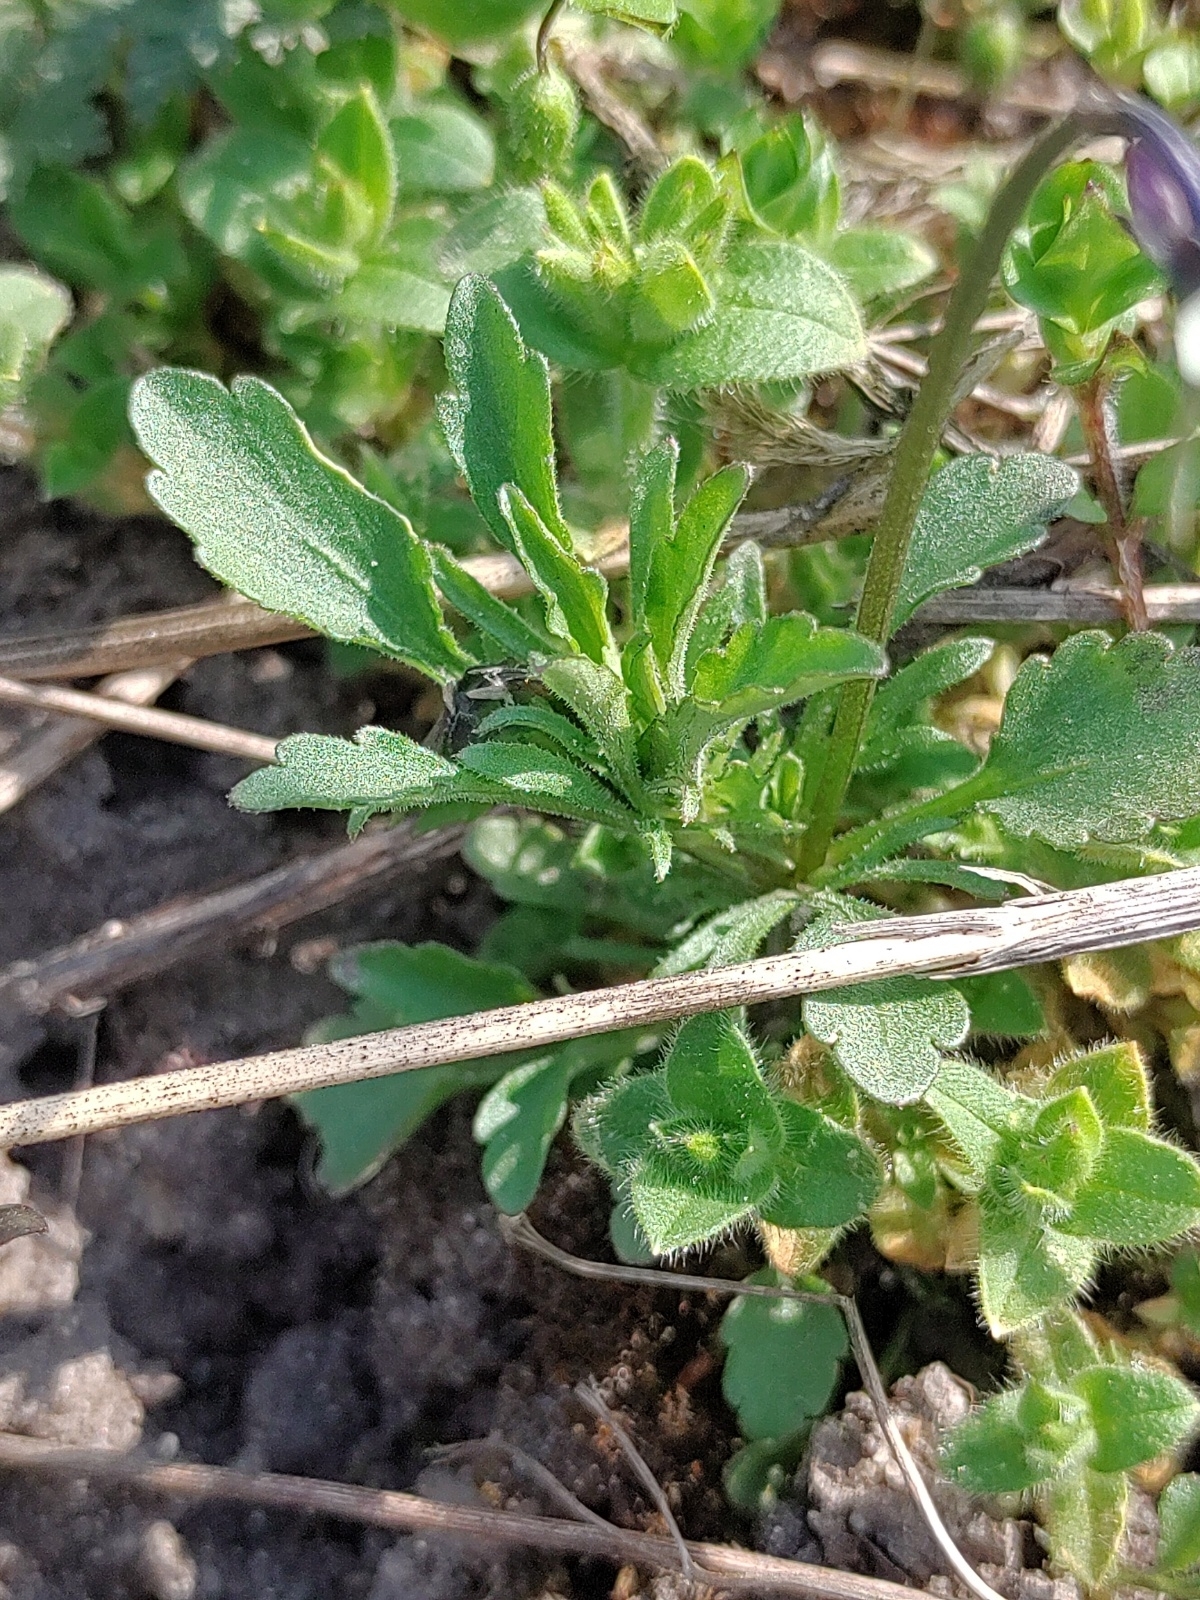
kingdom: Plantae
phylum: Tracheophyta
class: Magnoliopsida
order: Malpighiales
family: Violaceae
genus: Viola
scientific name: Viola arvensis
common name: Field pansy
